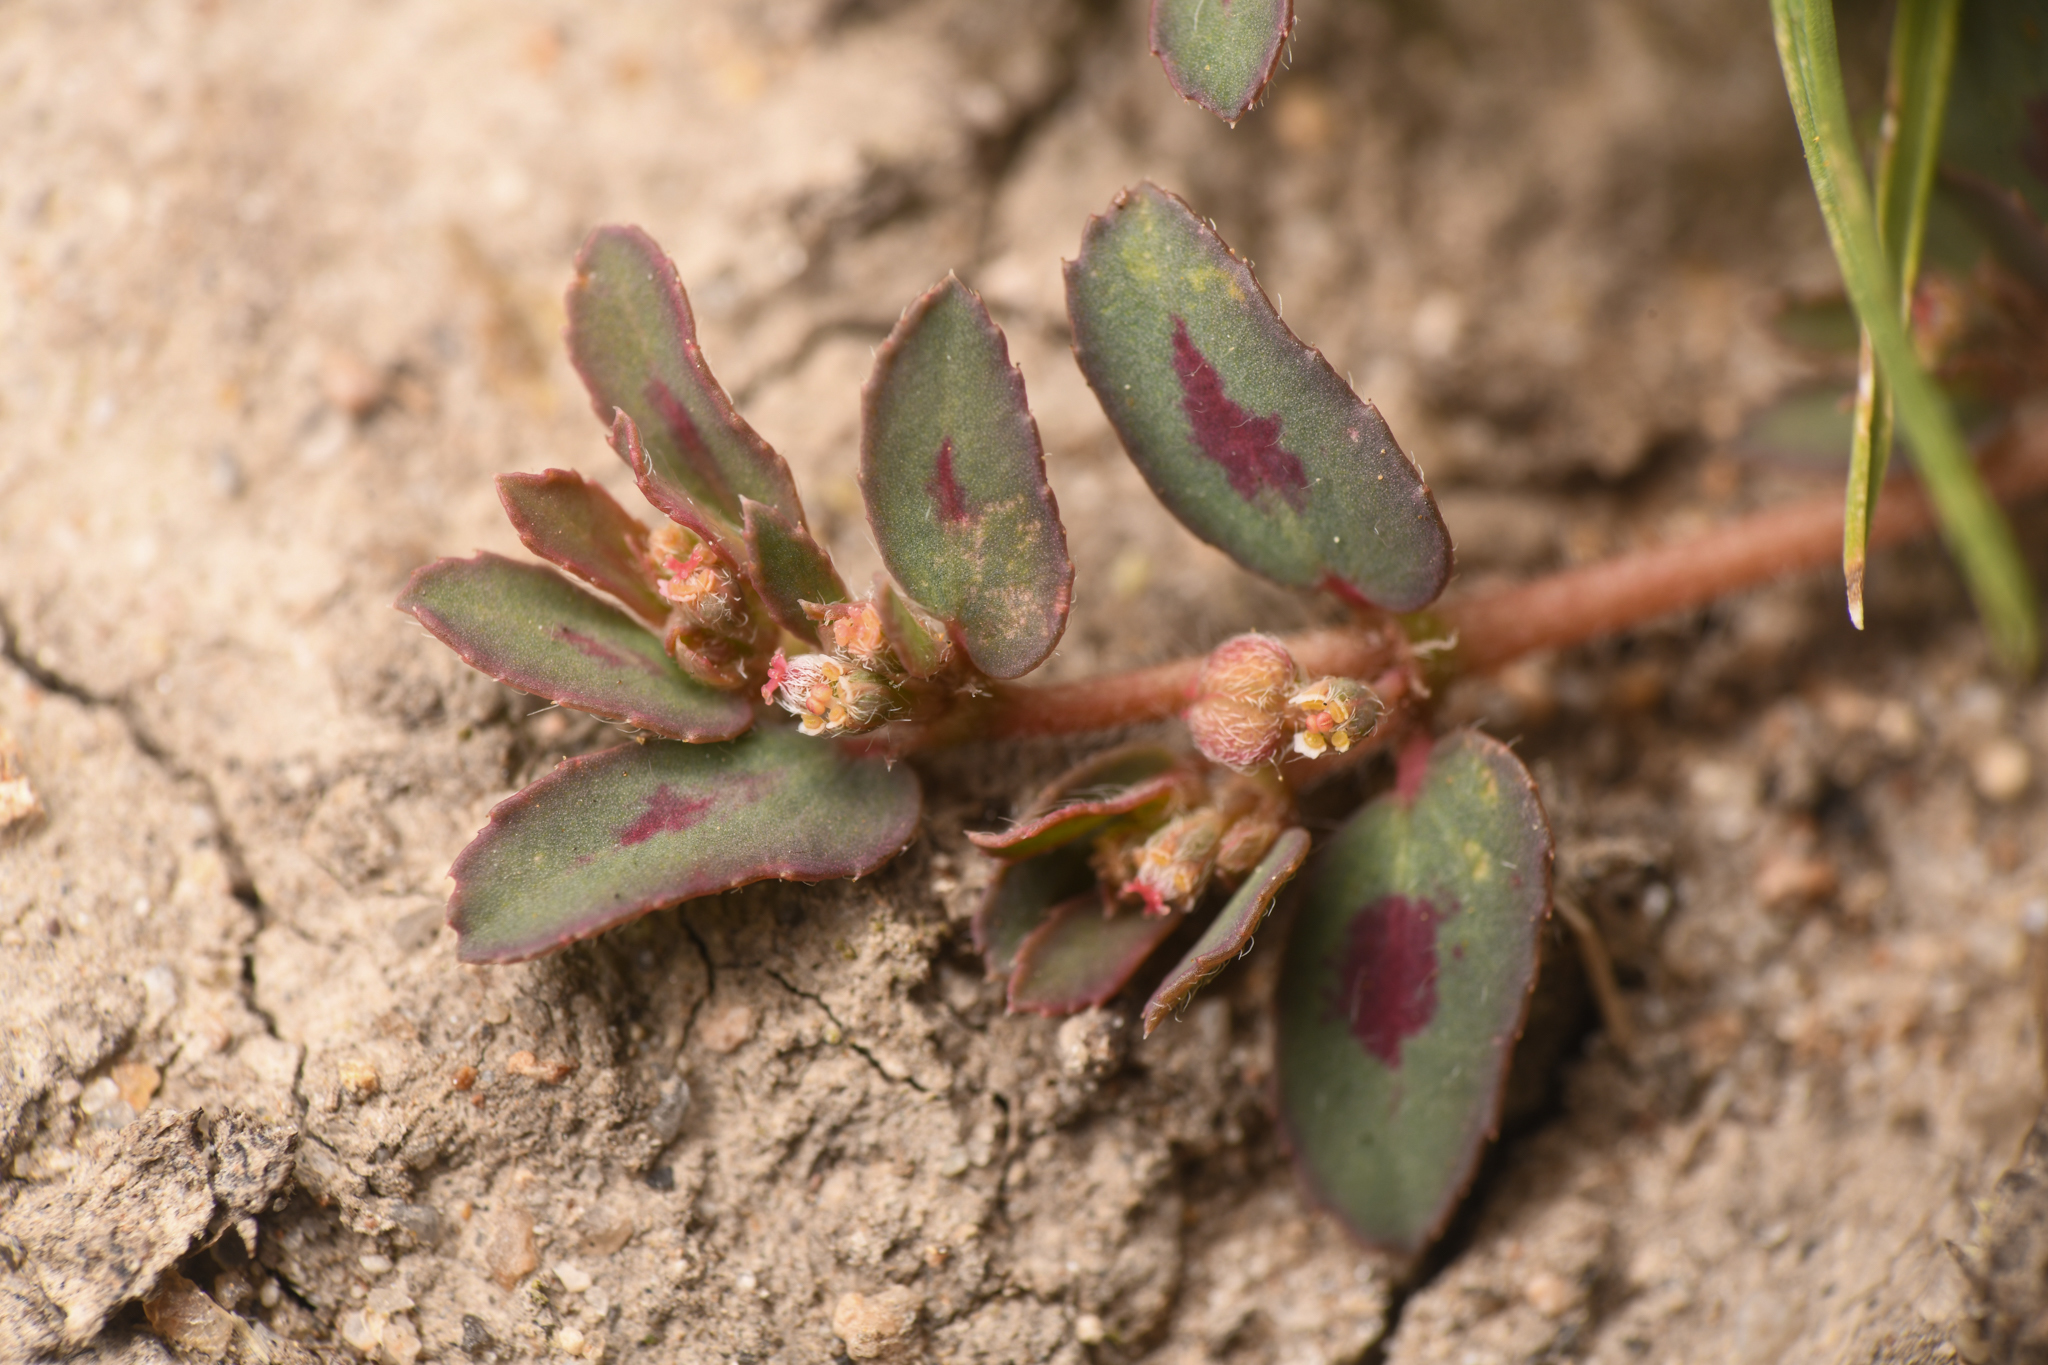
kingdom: Plantae
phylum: Tracheophyta
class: Magnoliopsida
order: Malpighiales
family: Euphorbiaceae
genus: Euphorbia
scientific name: Euphorbia maculata
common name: Spotted spurge
